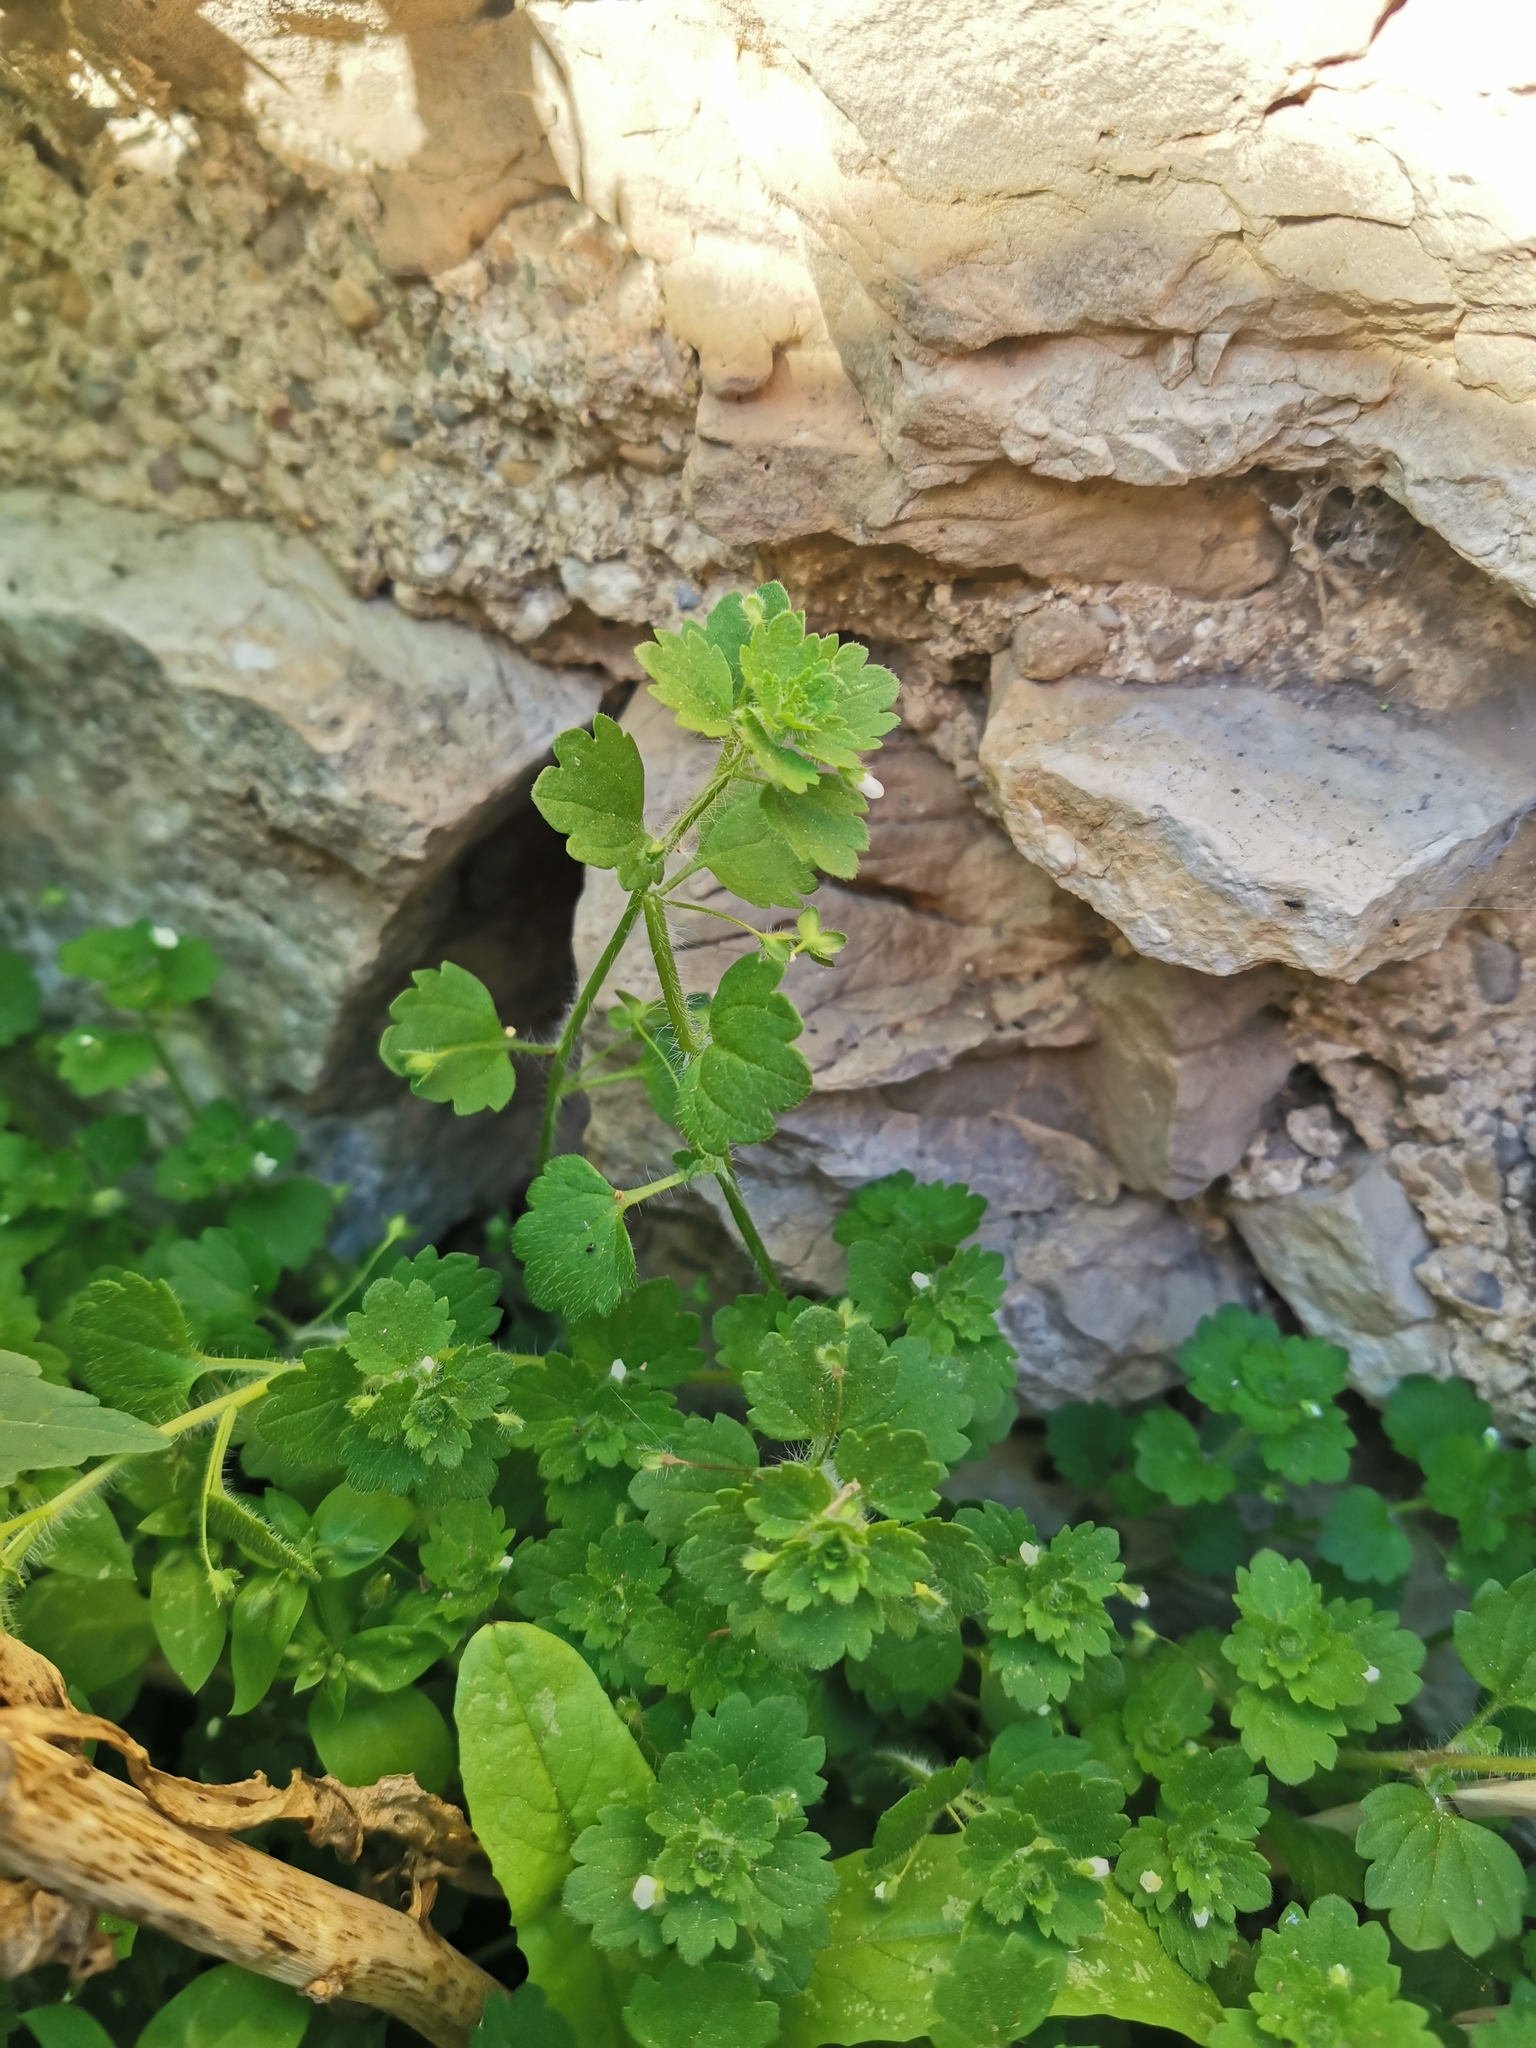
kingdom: Plantae
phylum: Tracheophyta
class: Magnoliopsida
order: Lamiales
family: Plantaginaceae
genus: Veronica
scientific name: Veronica cymbalaria
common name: Pale speedwell
